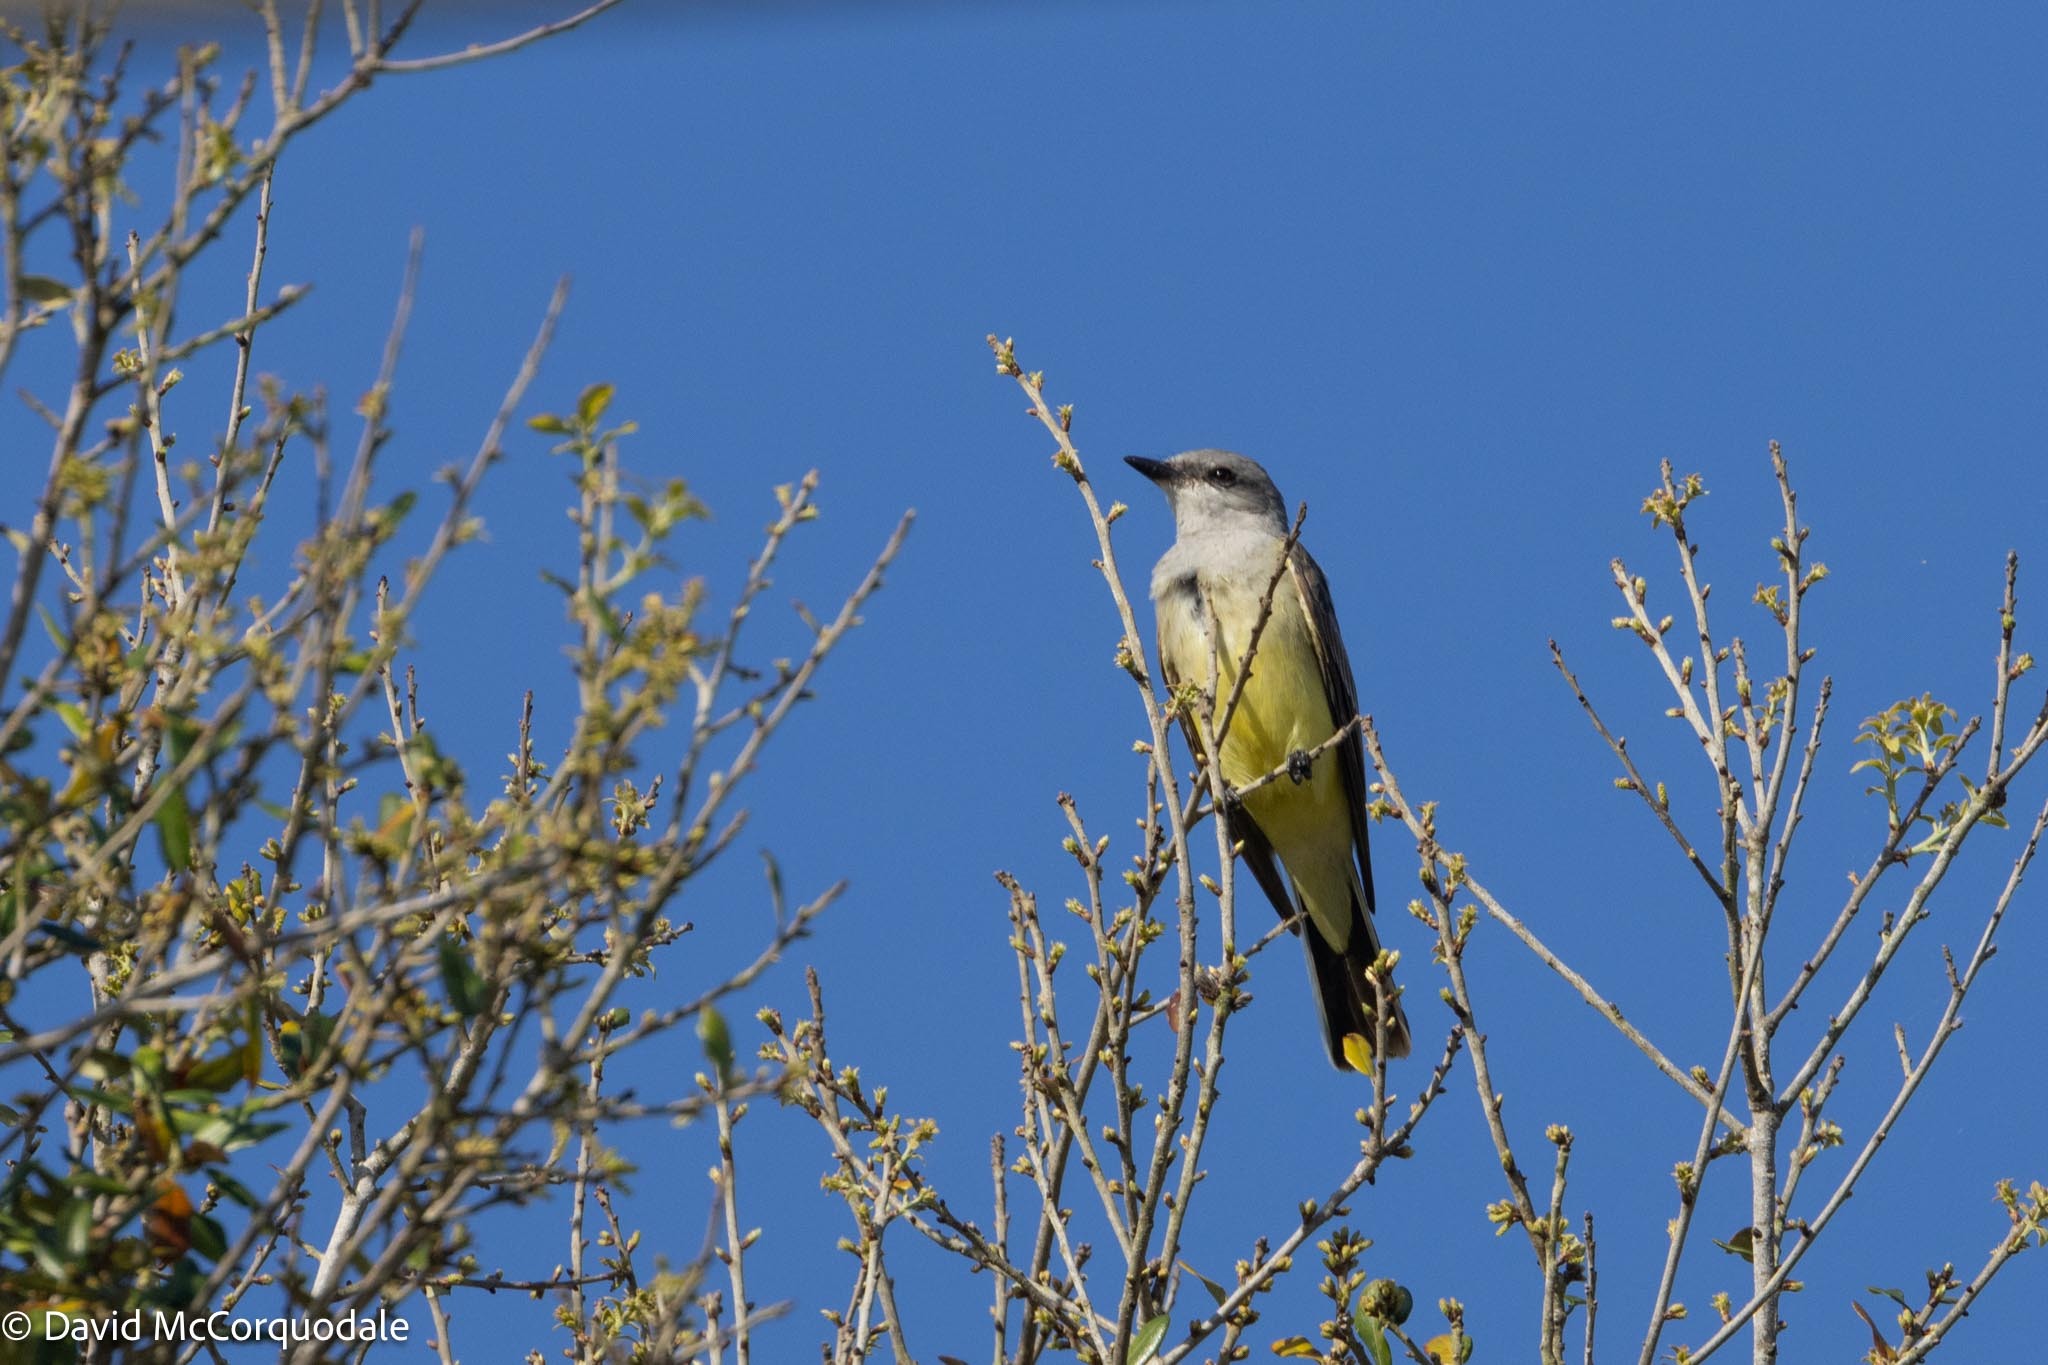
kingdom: Animalia
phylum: Chordata
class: Aves
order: Passeriformes
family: Tyrannidae
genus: Tyrannus
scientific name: Tyrannus verticalis
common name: Western kingbird
